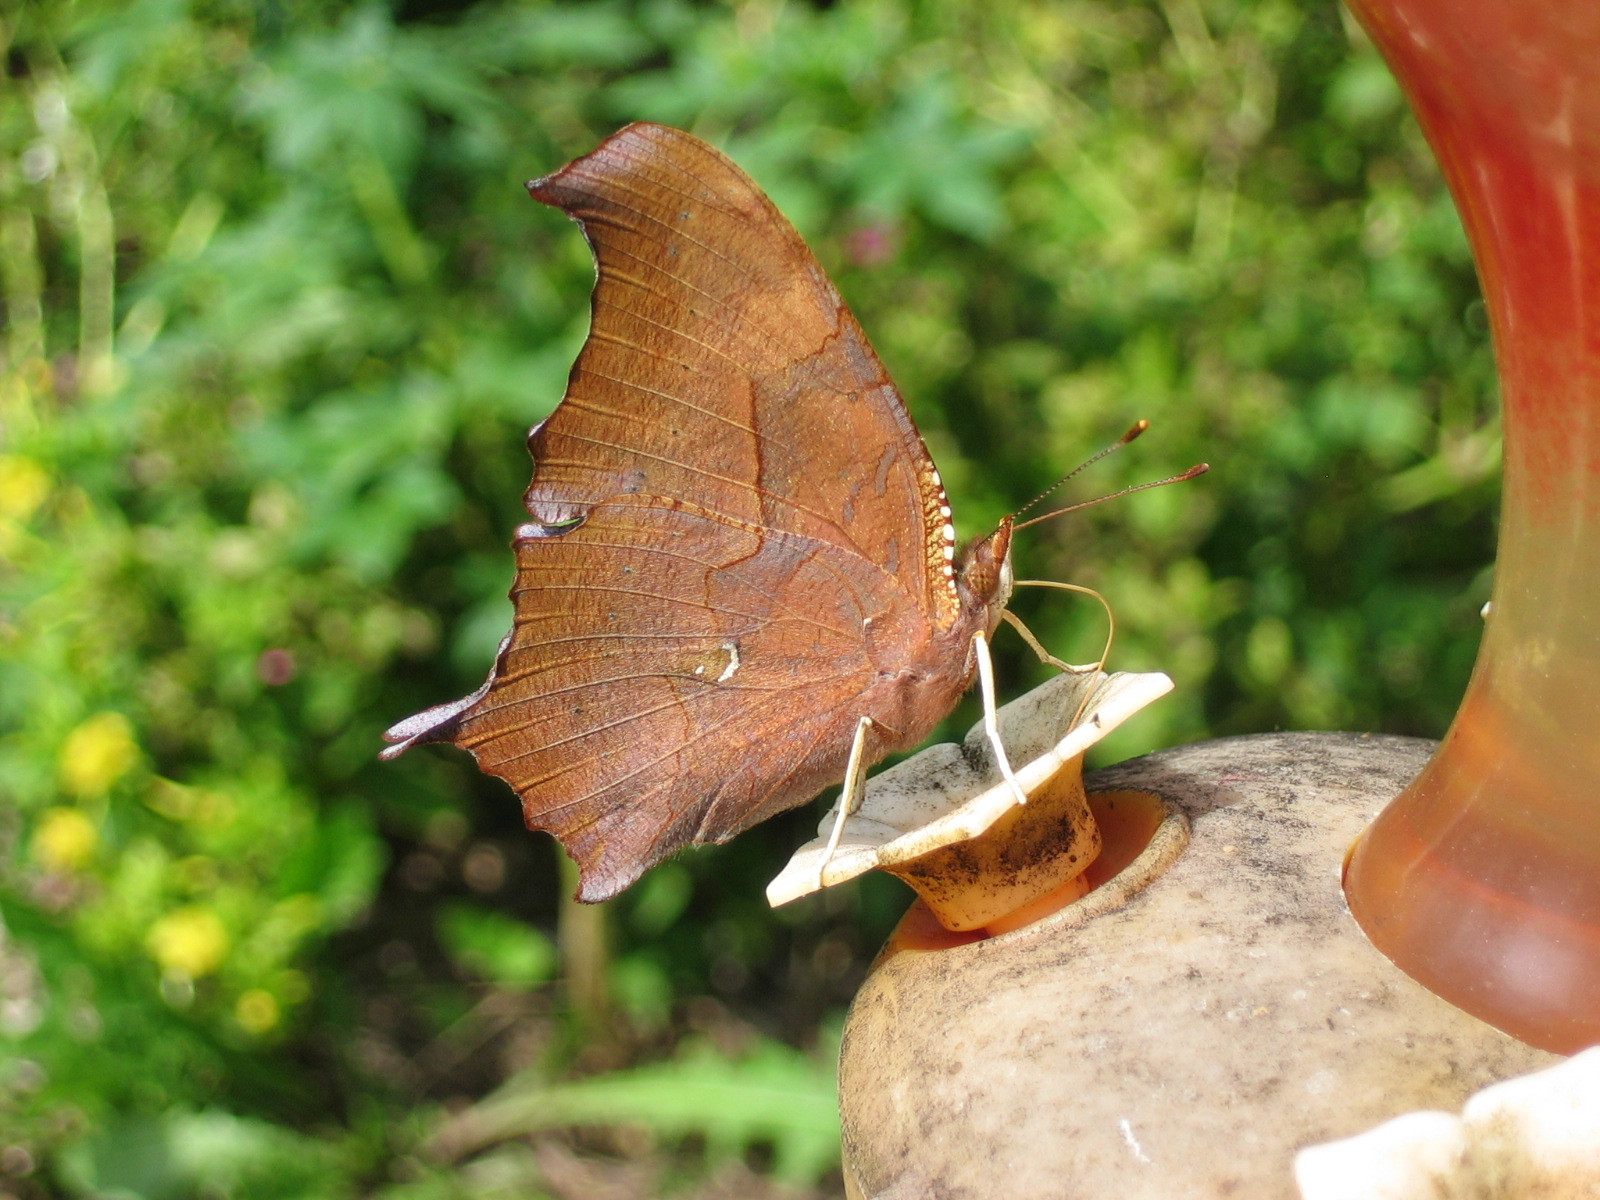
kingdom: Animalia
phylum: Arthropoda
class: Insecta
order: Lepidoptera
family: Nymphalidae
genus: Polygonia
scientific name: Polygonia interrogationis
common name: Question mark
